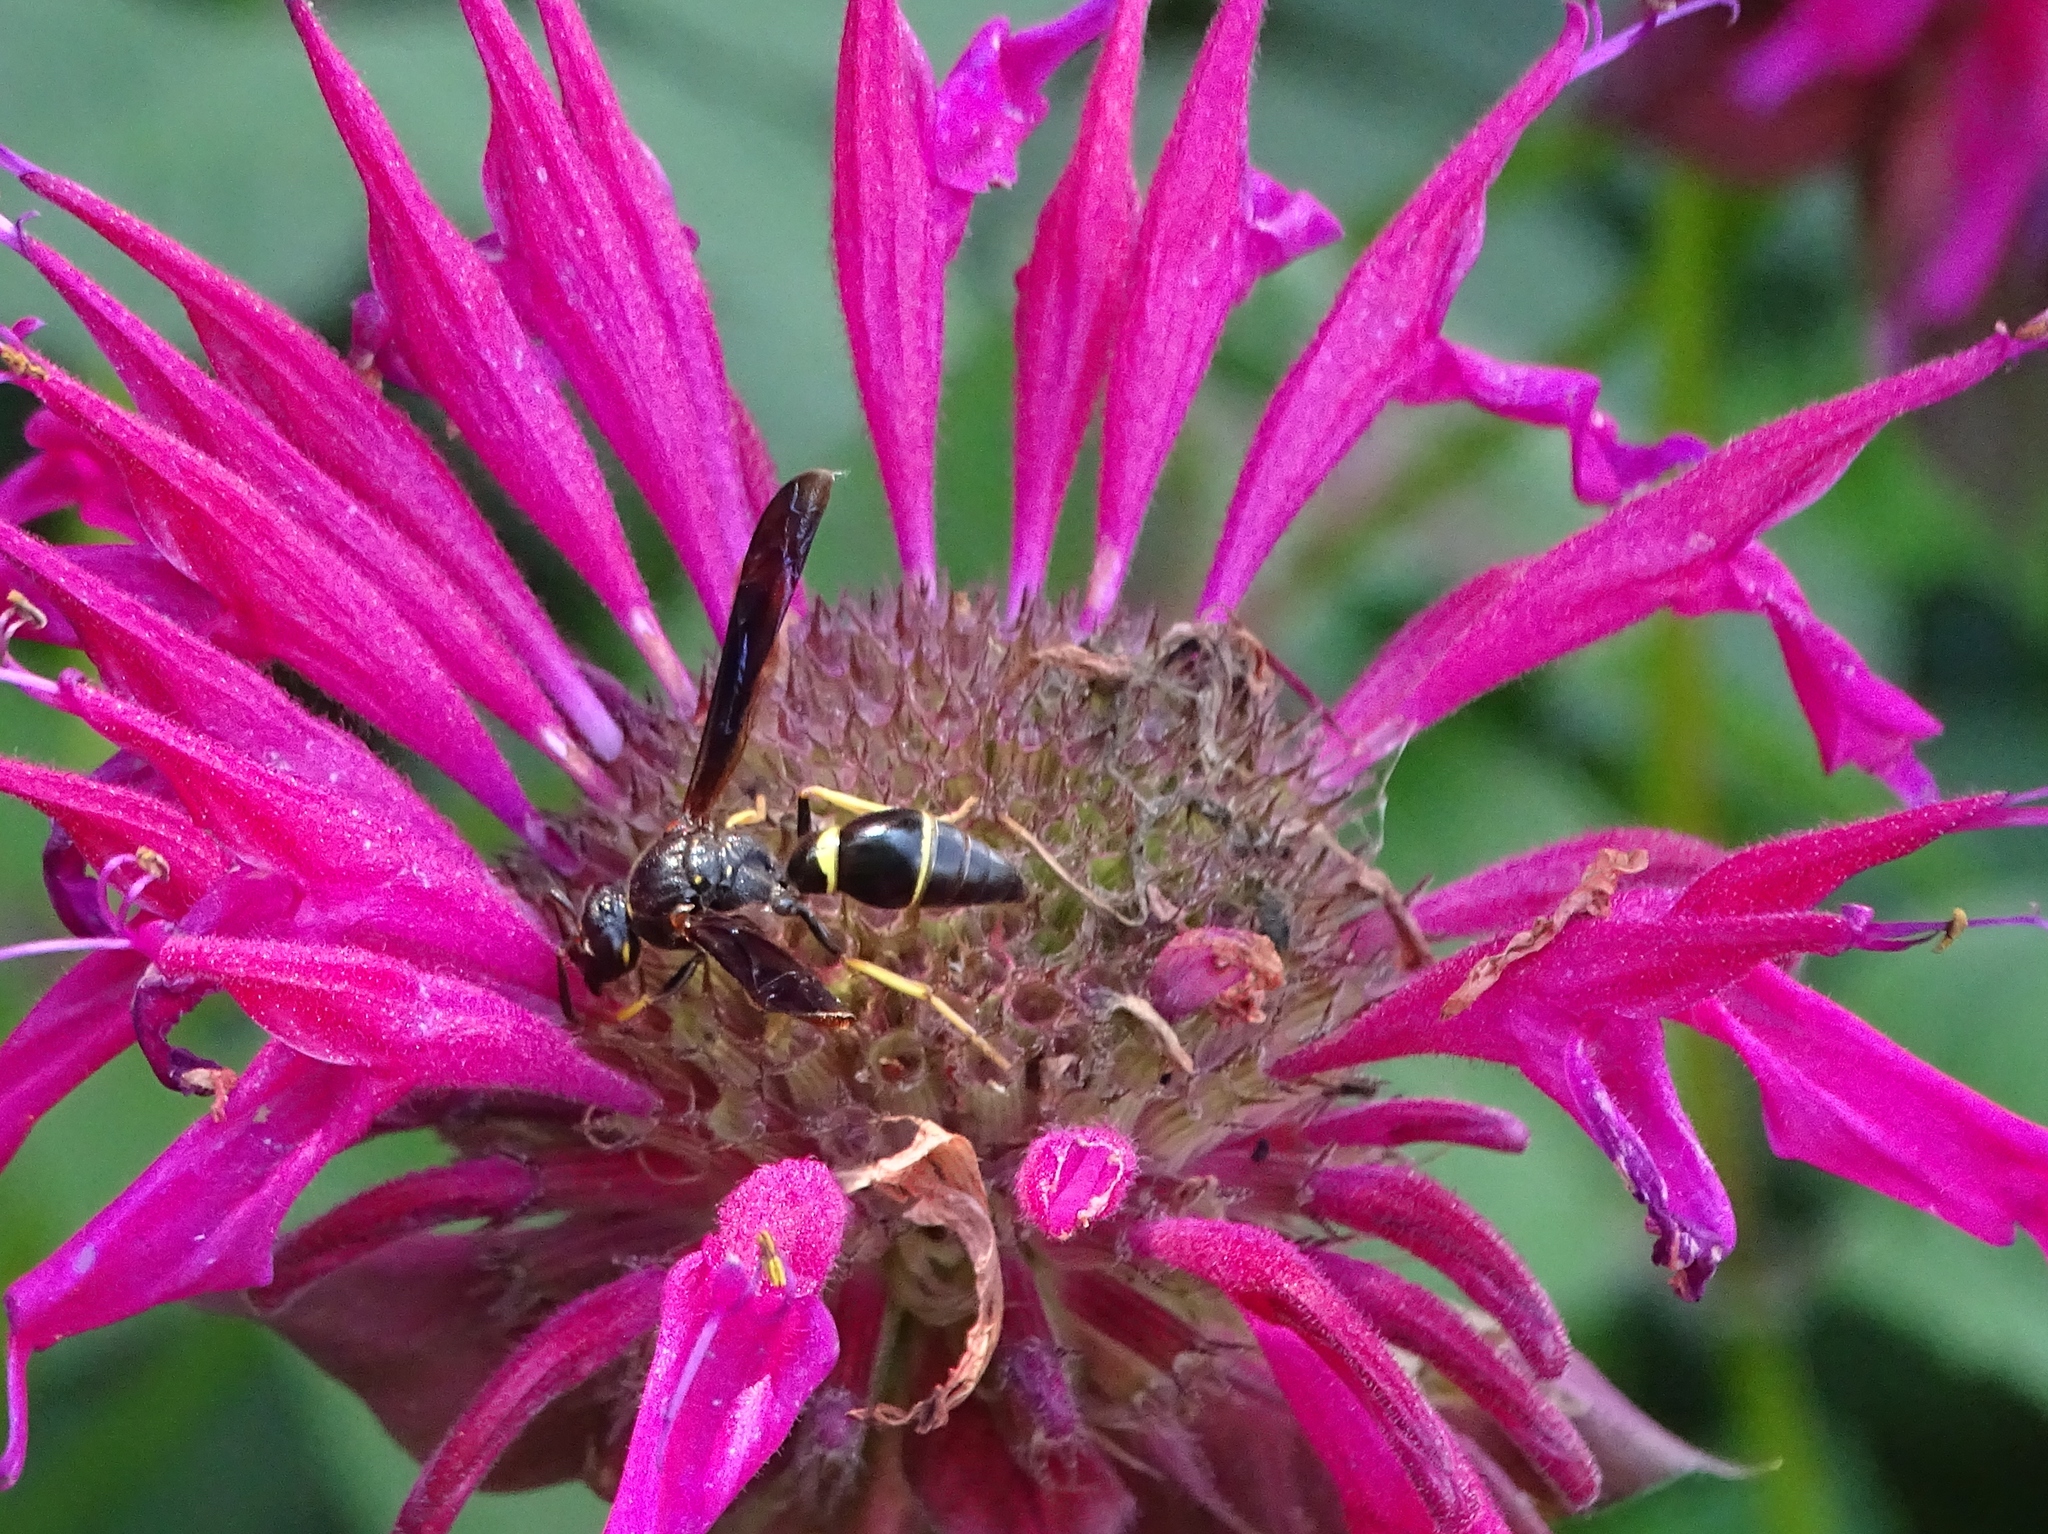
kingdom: Animalia
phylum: Arthropoda
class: Insecta
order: Hymenoptera
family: Eumenidae
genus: Parazumia
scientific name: Parazumia symmorpha
